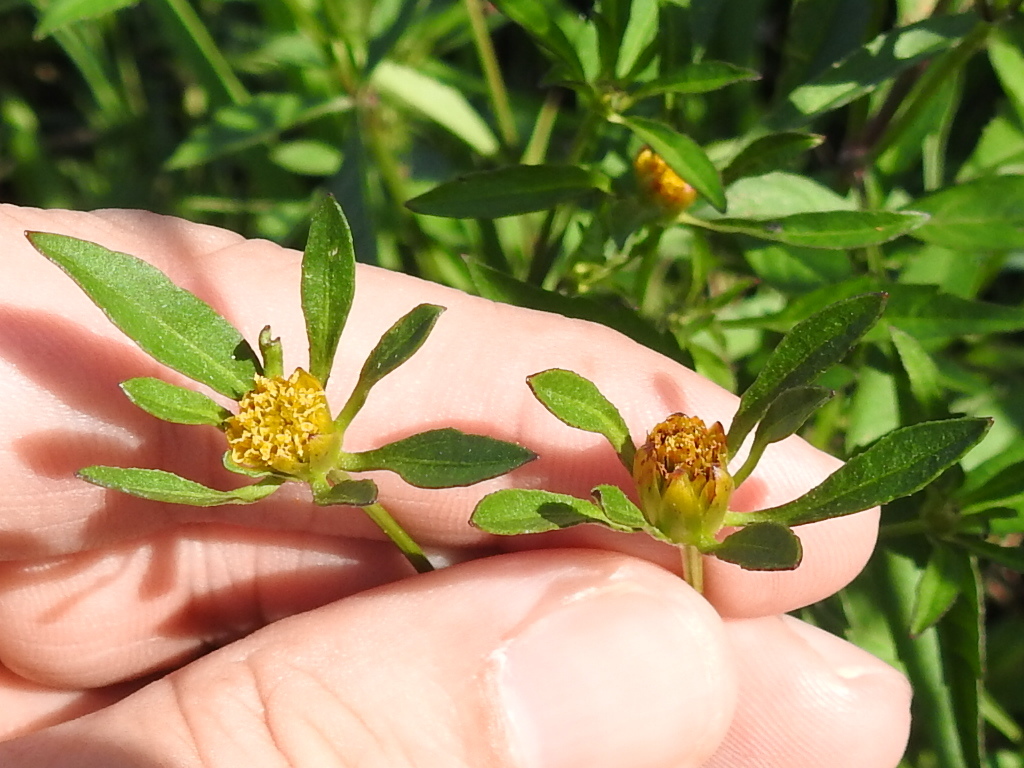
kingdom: Plantae
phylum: Tracheophyta
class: Magnoliopsida
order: Asterales
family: Asteraceae
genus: Bidens
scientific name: Bidens frondosa
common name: Beggarticks
